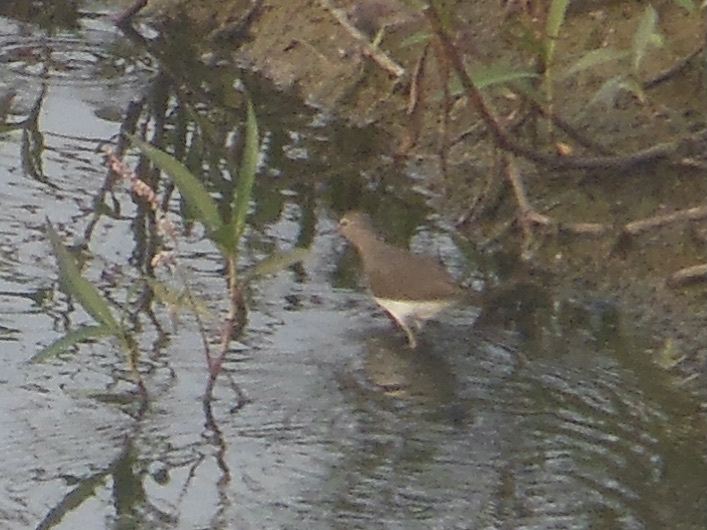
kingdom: Animalia
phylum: Chordata
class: Aves
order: Charadriiformes
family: Scolopacidae
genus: Tringa
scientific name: Tringa ochropus
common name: Green sandpiper
